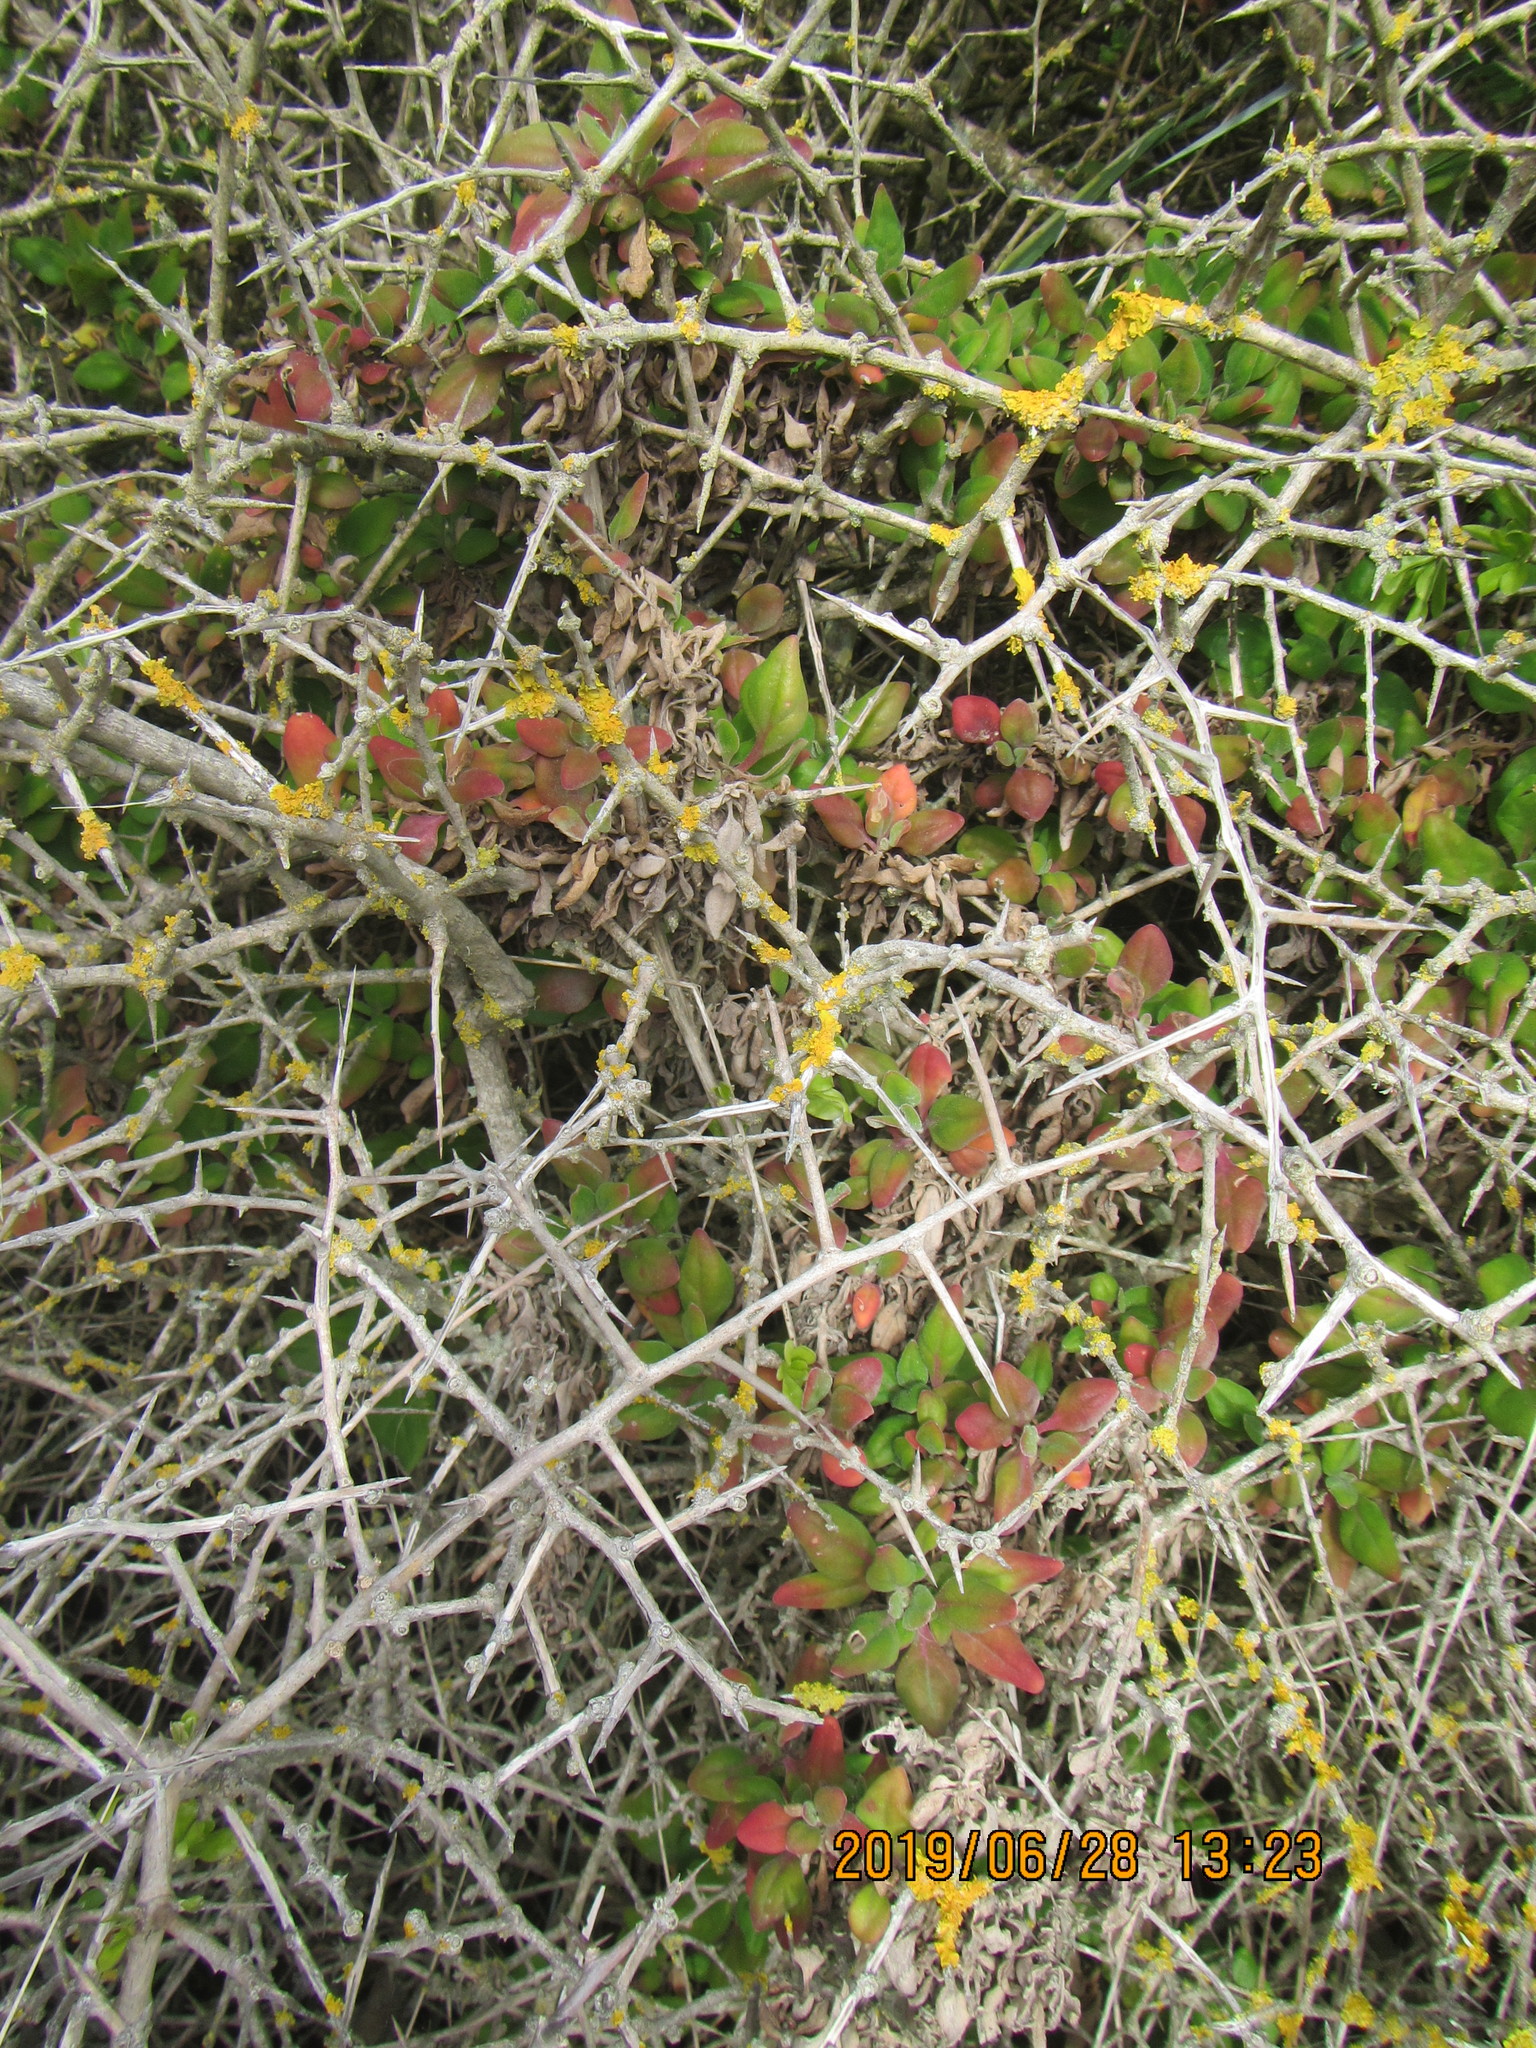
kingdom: Plantae
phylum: Tracheophyta
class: Magnoliopsida
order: Solanales
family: Solanaceae
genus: Lycium
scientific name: Lycium ferocissimum
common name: African boxthorn
